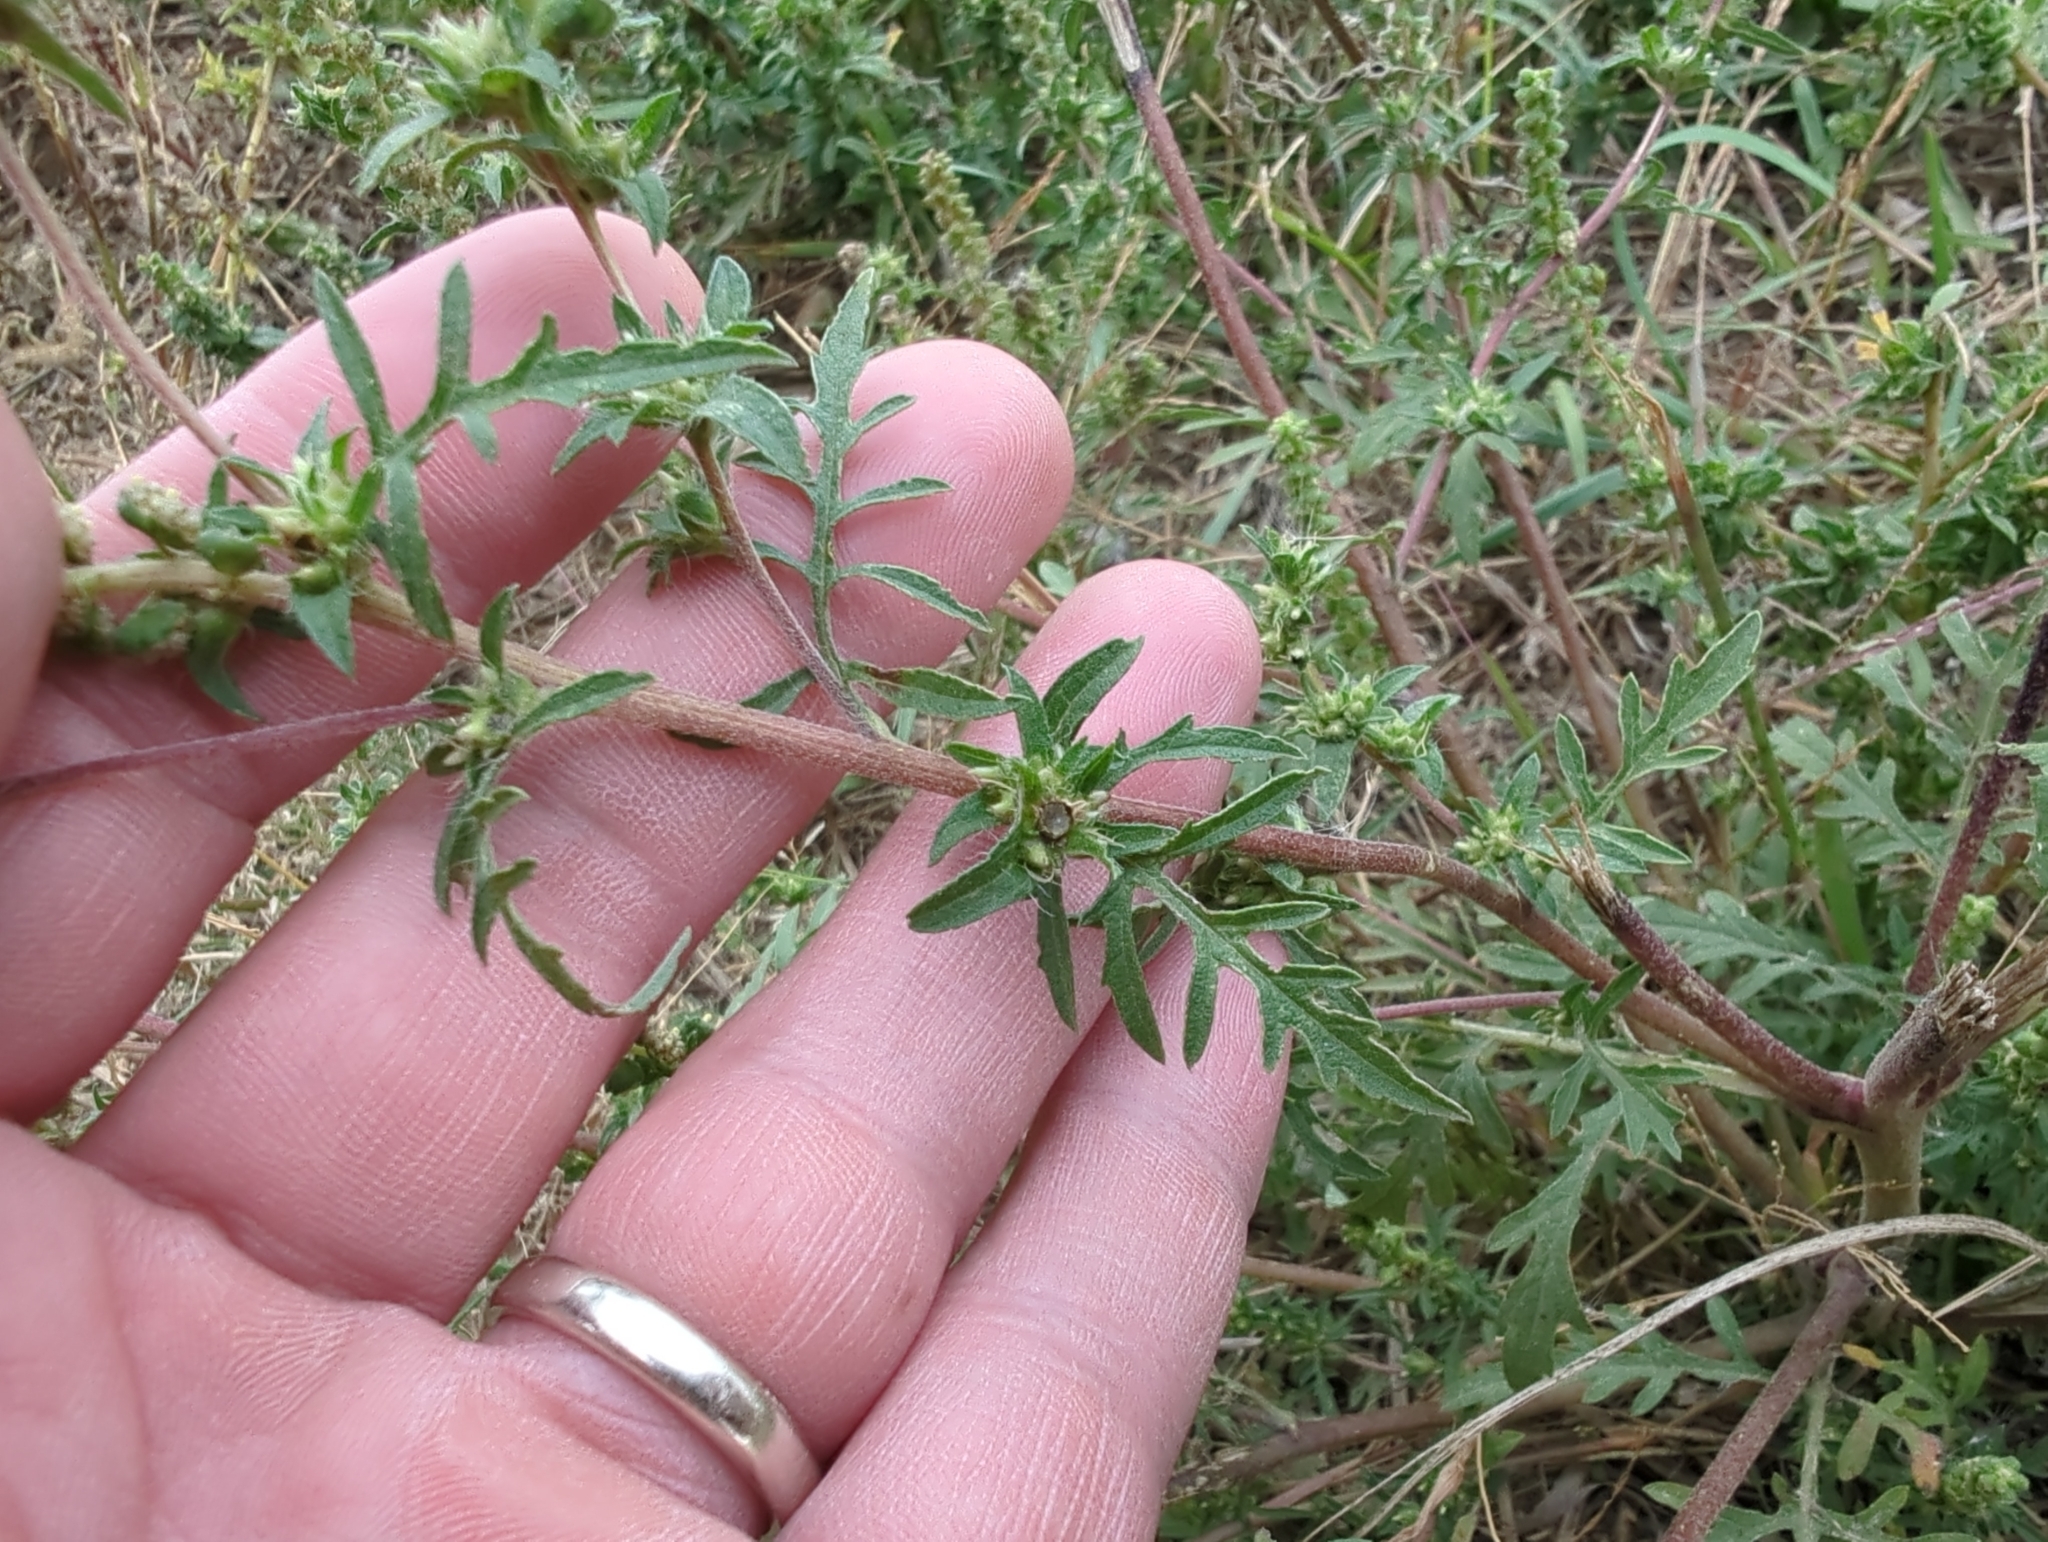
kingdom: Plantae
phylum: Tracheophyta
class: Magnoliopsida
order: Asterales
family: Asteraceae
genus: Ambrosia
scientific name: Ambrosia artemisiifolia
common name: Annual ragweed
